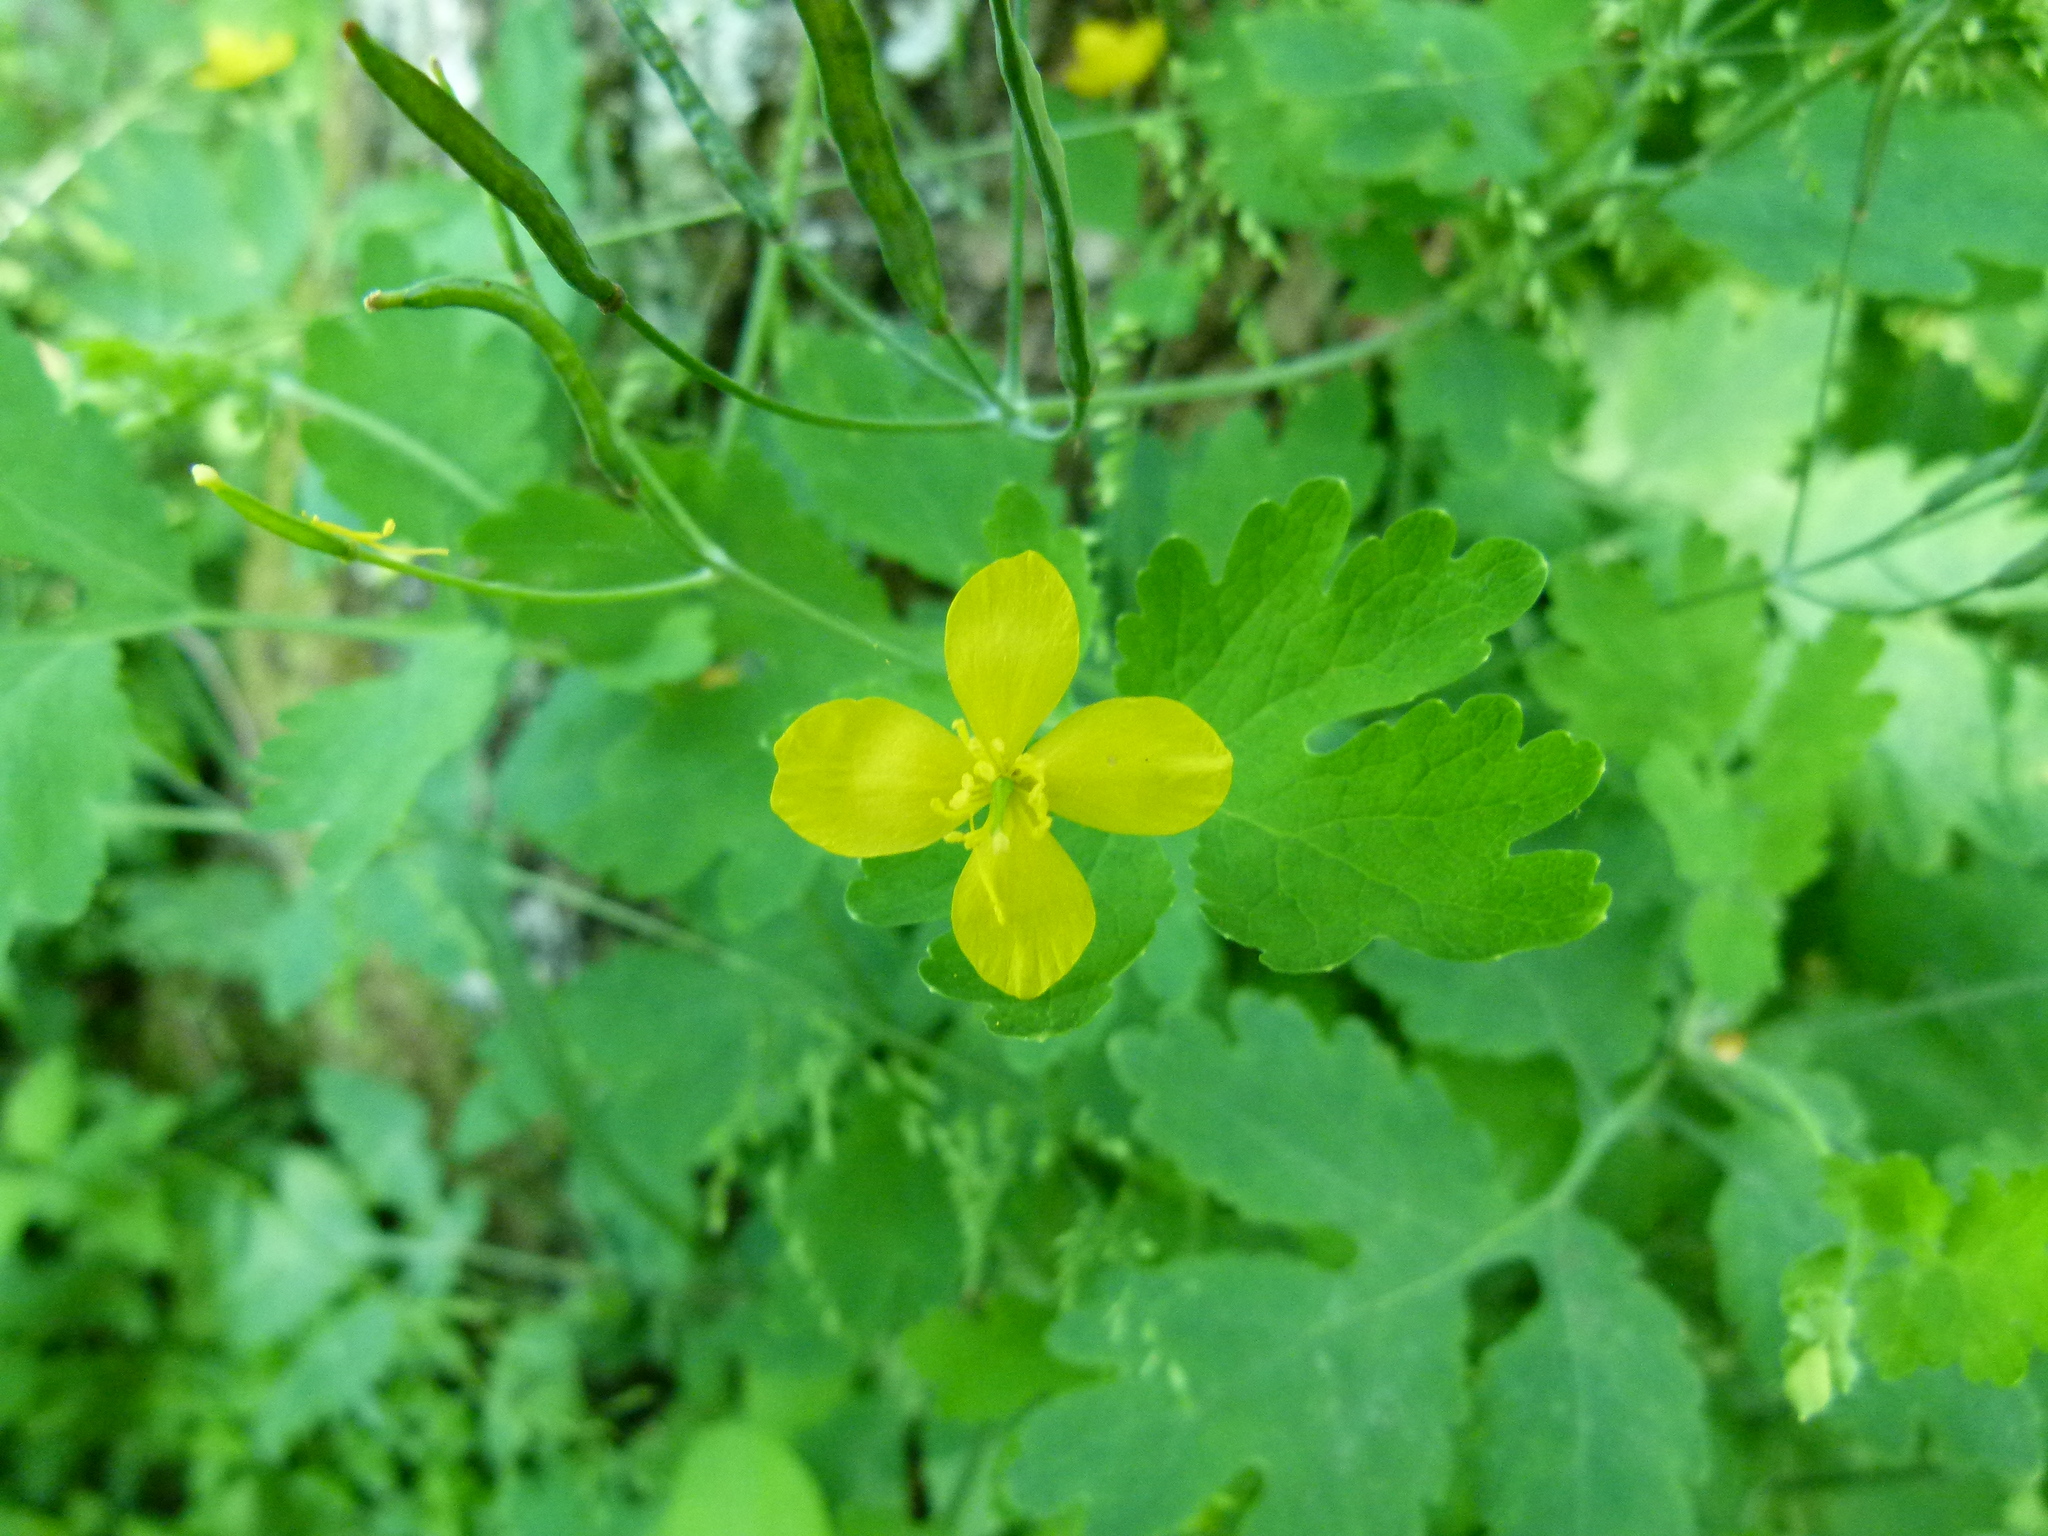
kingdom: Plantae
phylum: Tracheophyta
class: Magnoliopsida
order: Ranunculales
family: Papaveraceae
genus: Chelidonium
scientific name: Chelidonium majus
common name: Greater celandine
